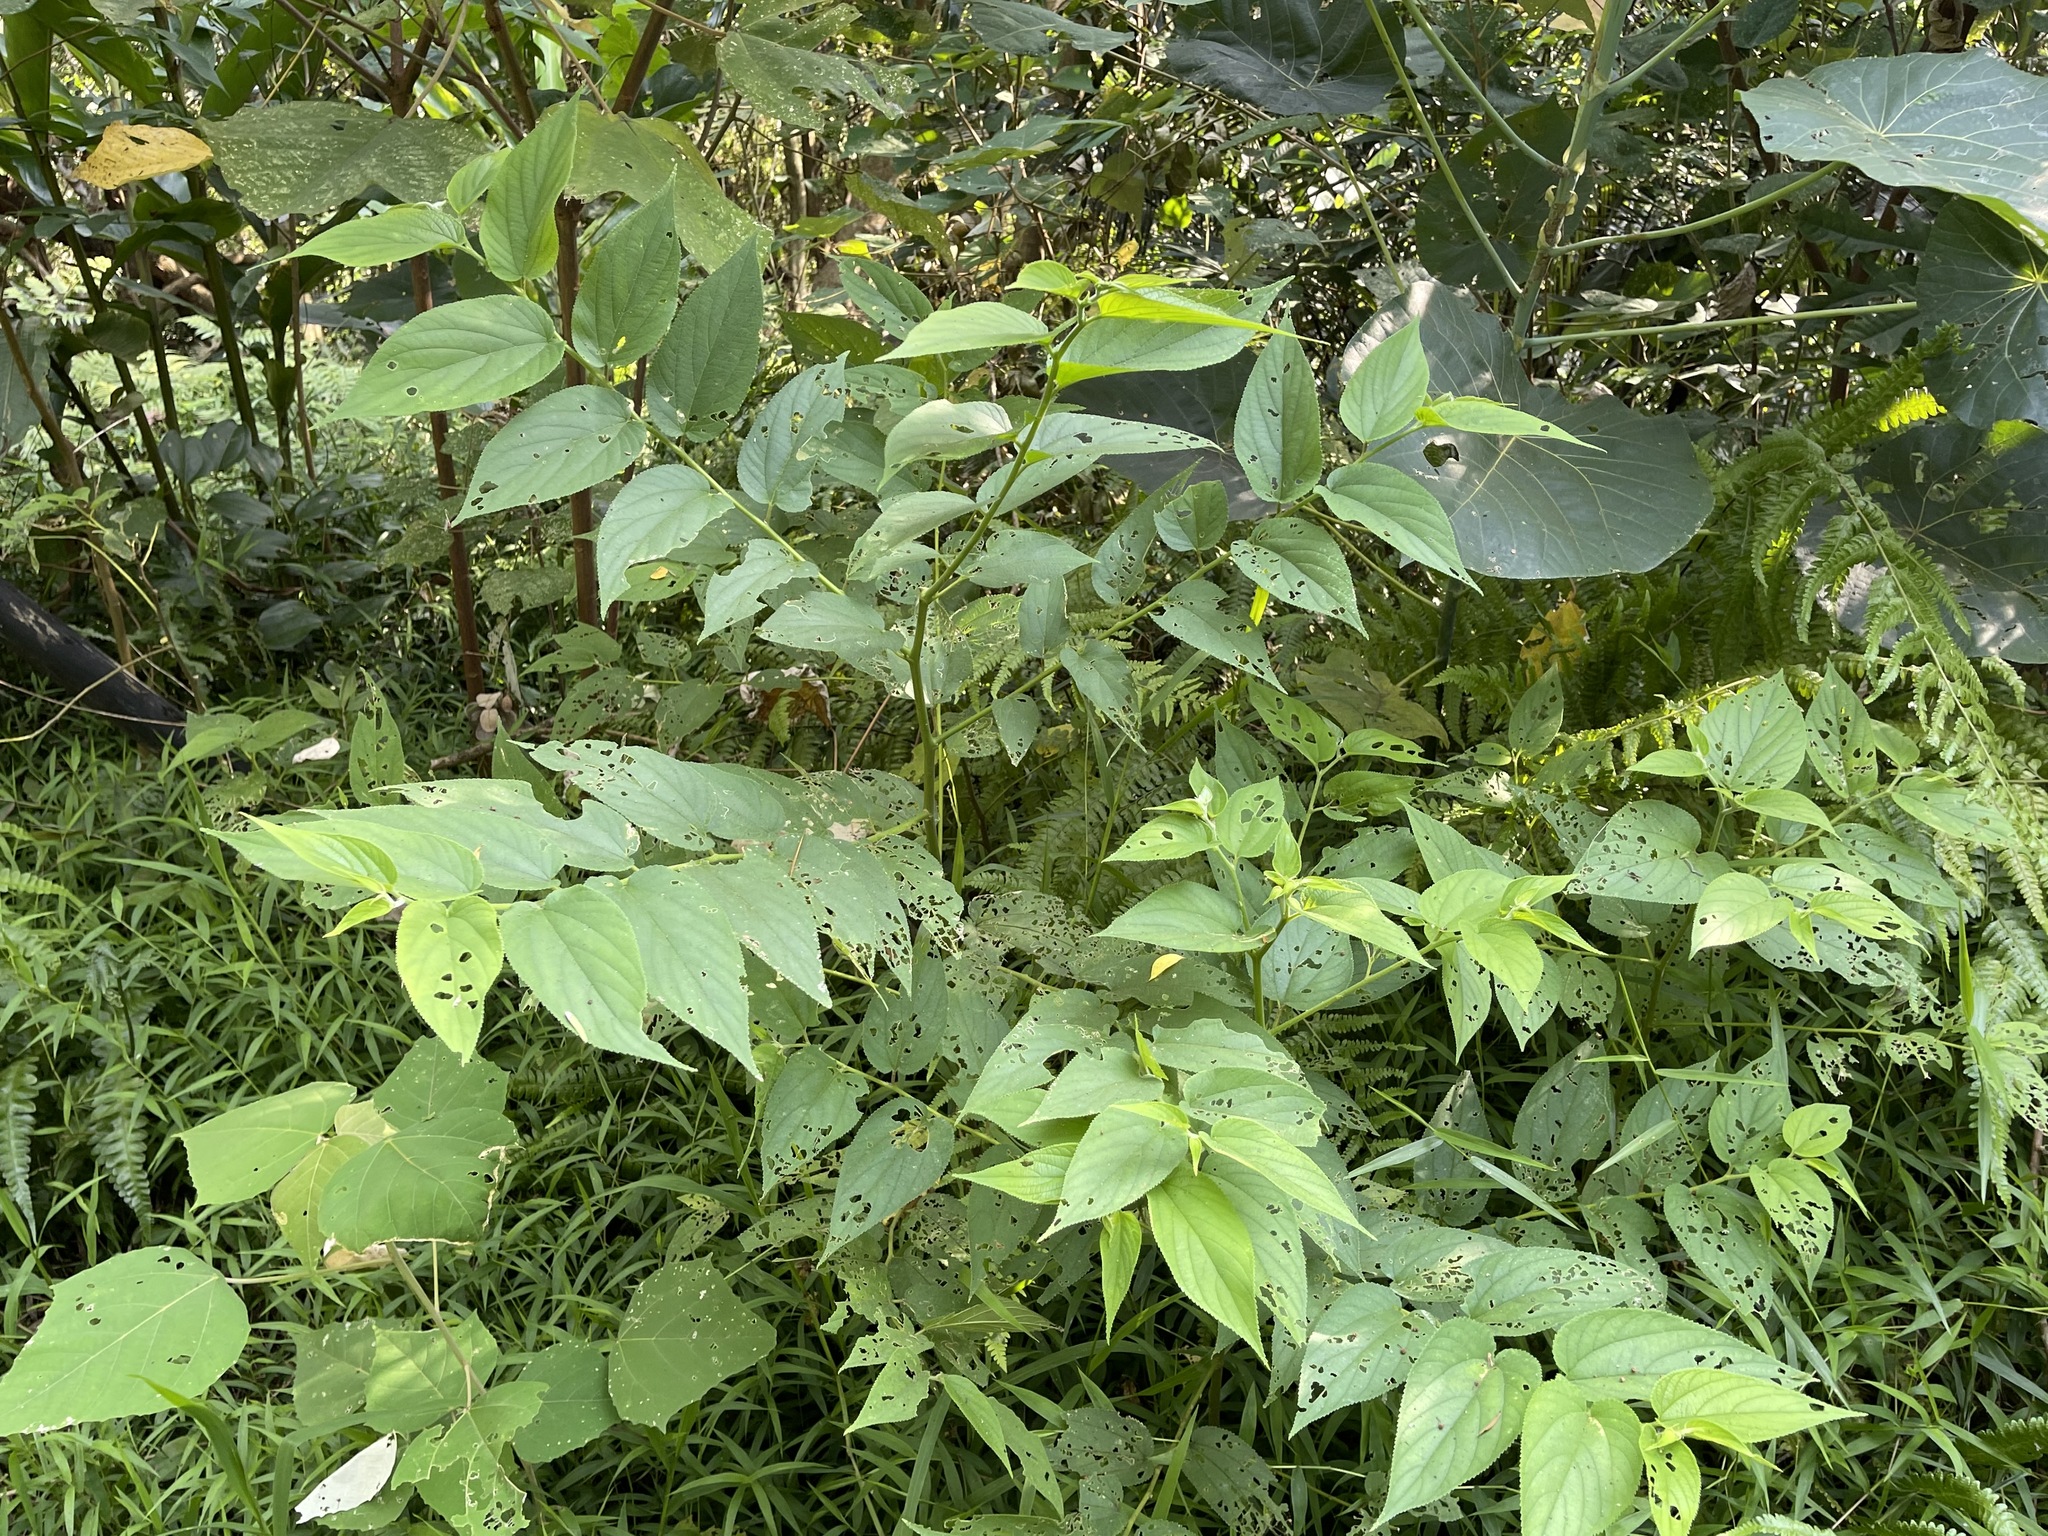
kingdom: Plantae
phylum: Tracheophyta
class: Magnoliopsida
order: Rosales
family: Cannabaceae
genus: Trema
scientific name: Trema orientale
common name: Indian charcoal tree
